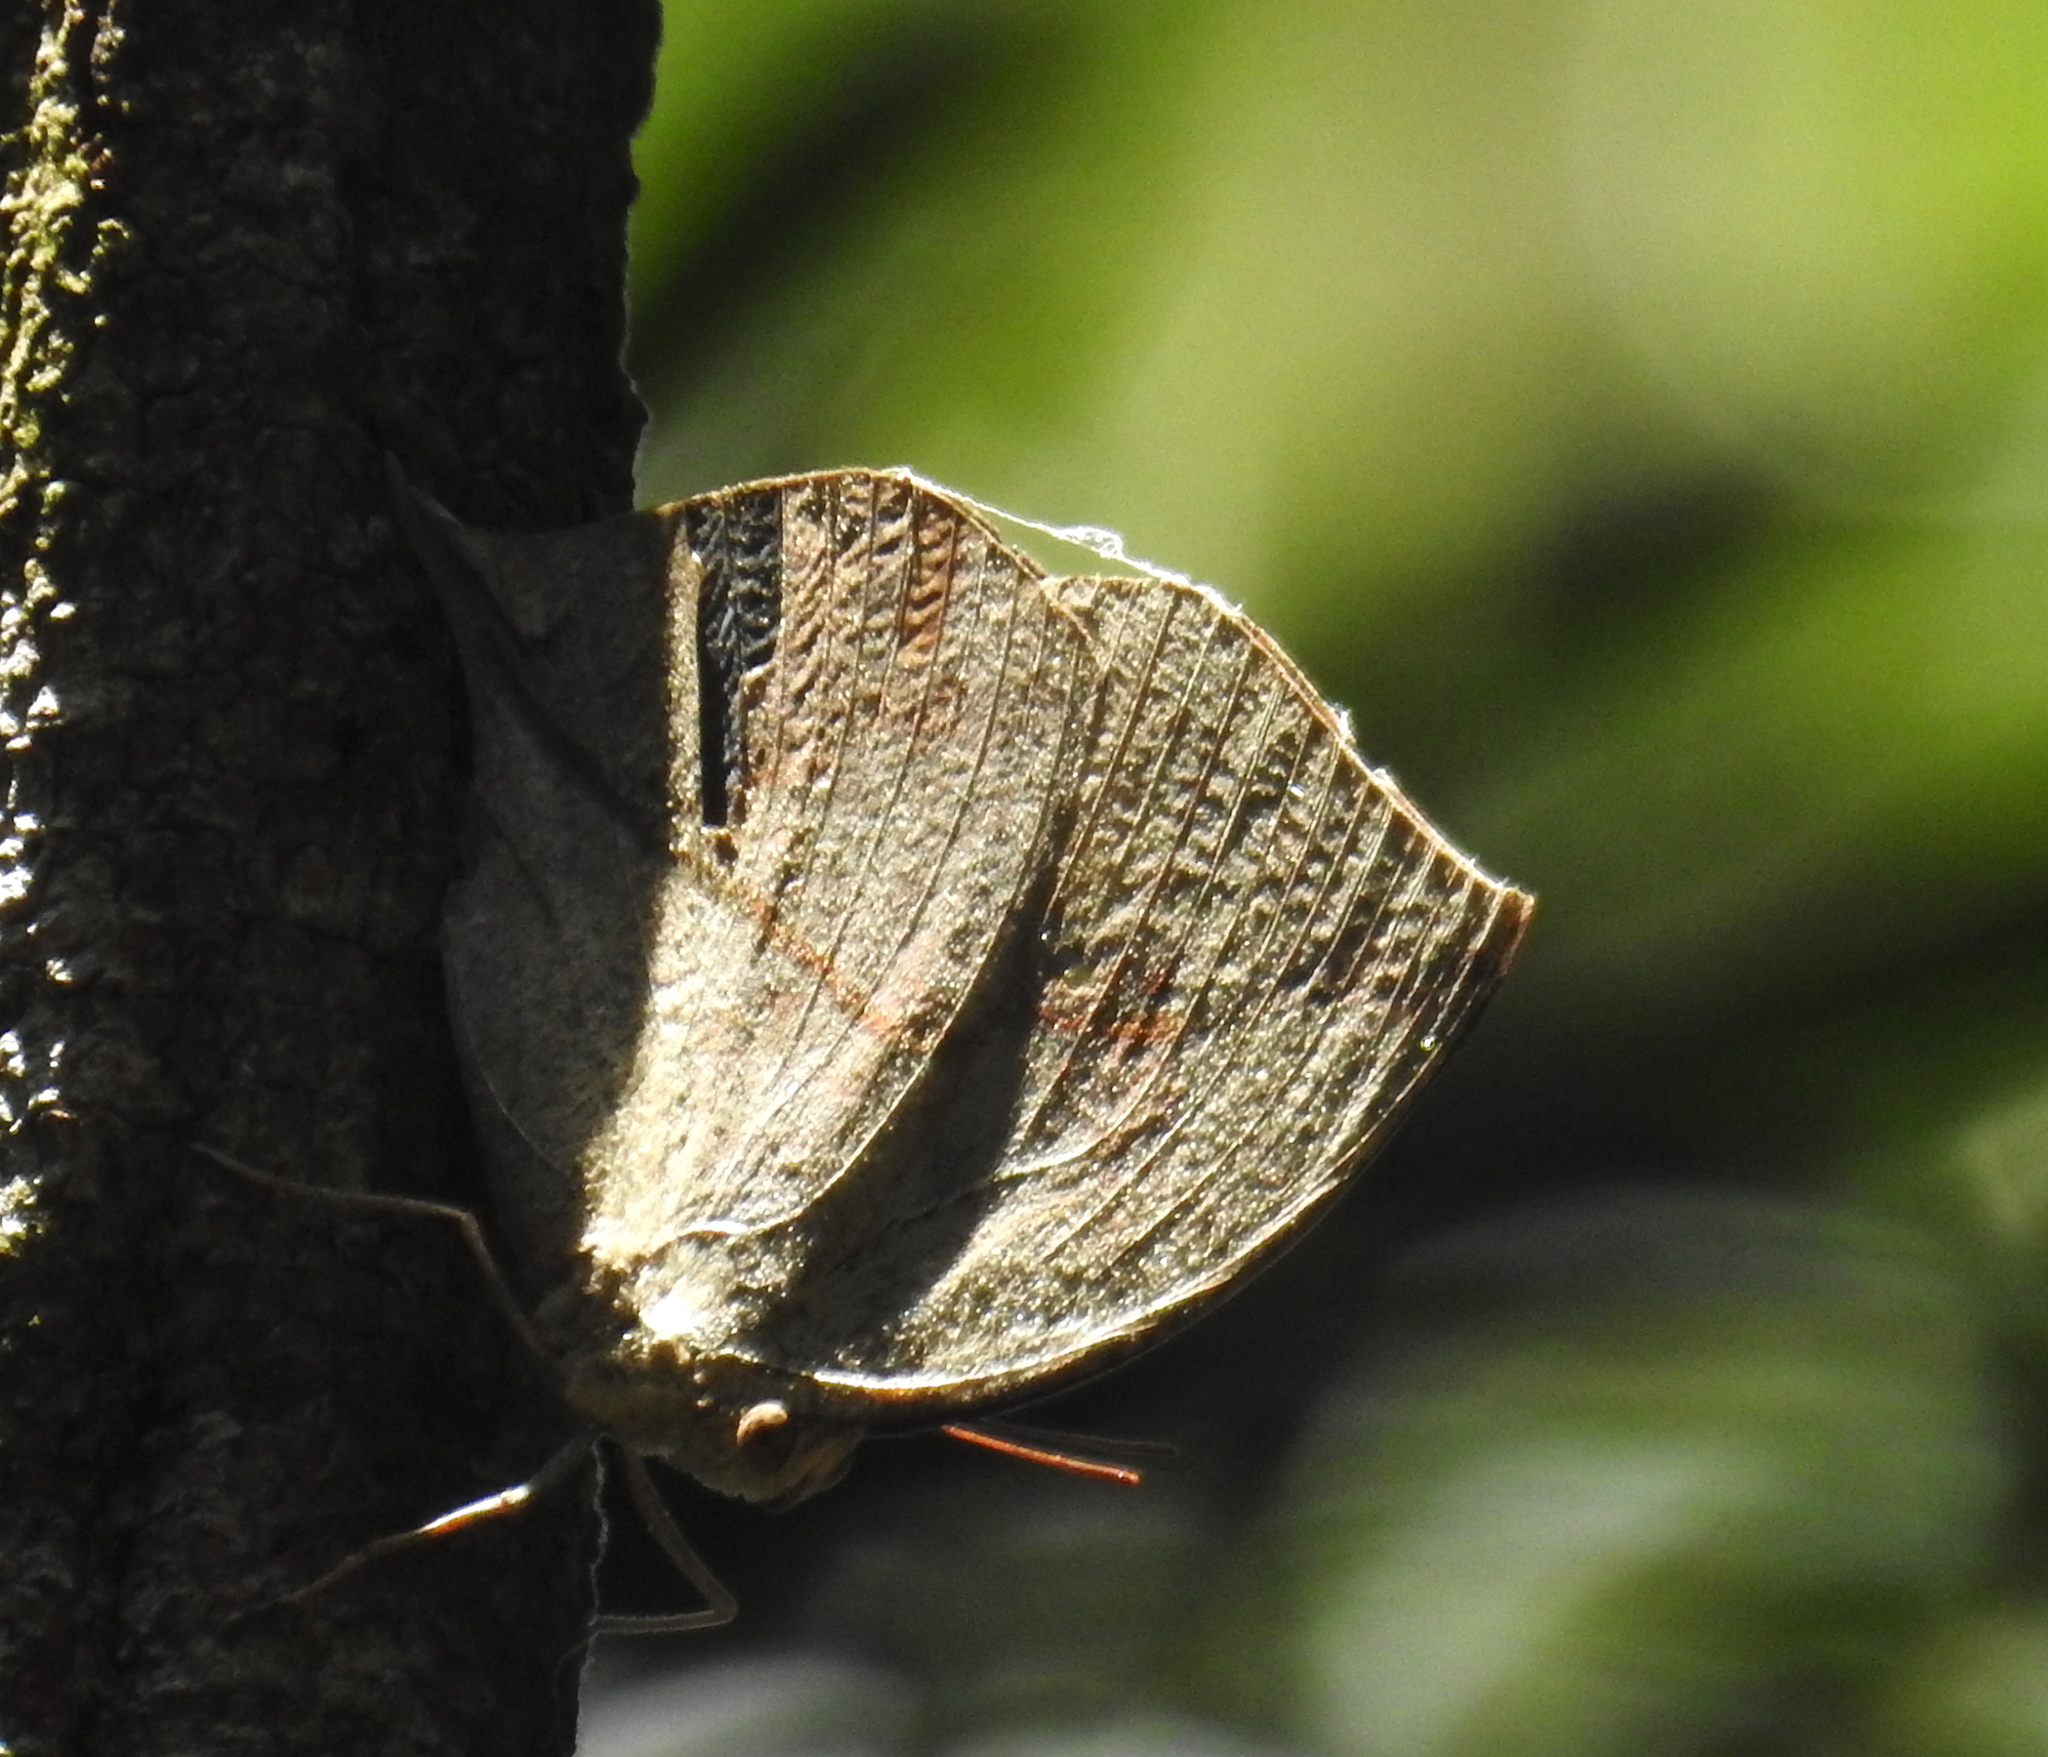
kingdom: Animalia
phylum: Arthropoda
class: Insecta
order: Lepidoptera
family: Nymphalidae
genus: Kallima
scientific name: Kallima horsfieldii
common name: Sahyadri blue oakleaf
